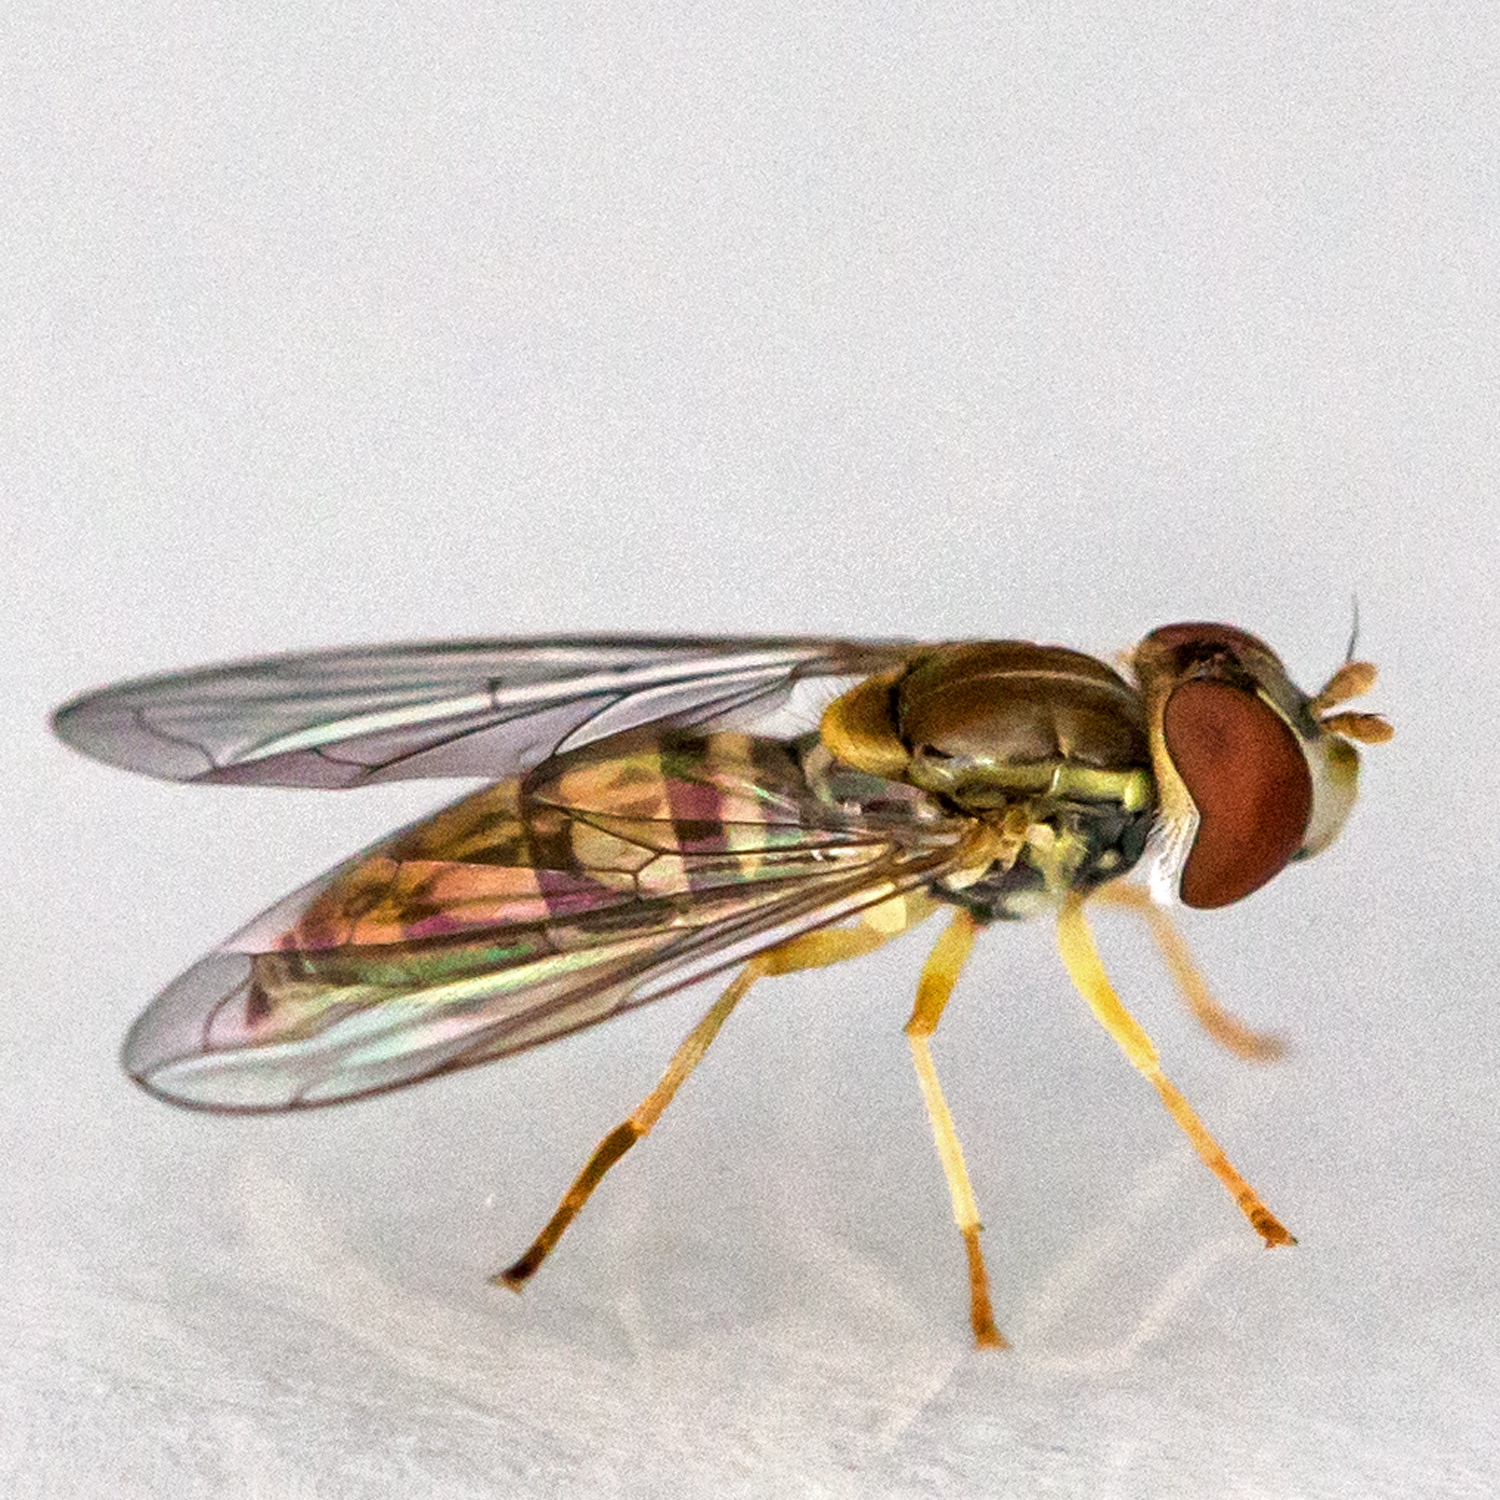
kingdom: Animalia
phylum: Arthropoda
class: Insecta
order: Diptera
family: Syrphidae
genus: Toxomerus
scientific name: Toxomerus marginatus
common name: Syrphid fly
